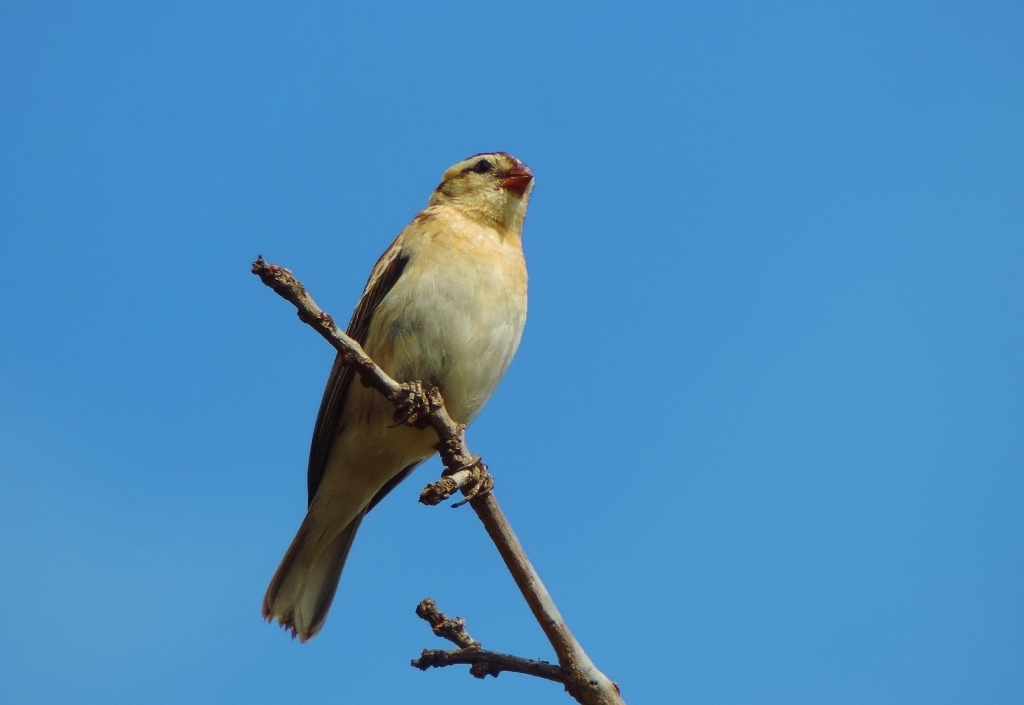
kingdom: Animalia
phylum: Chordata
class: Aves
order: Passeriformes
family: Viduidae
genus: Vidua
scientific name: Vidua macroura
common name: Pin-tailed whydah
